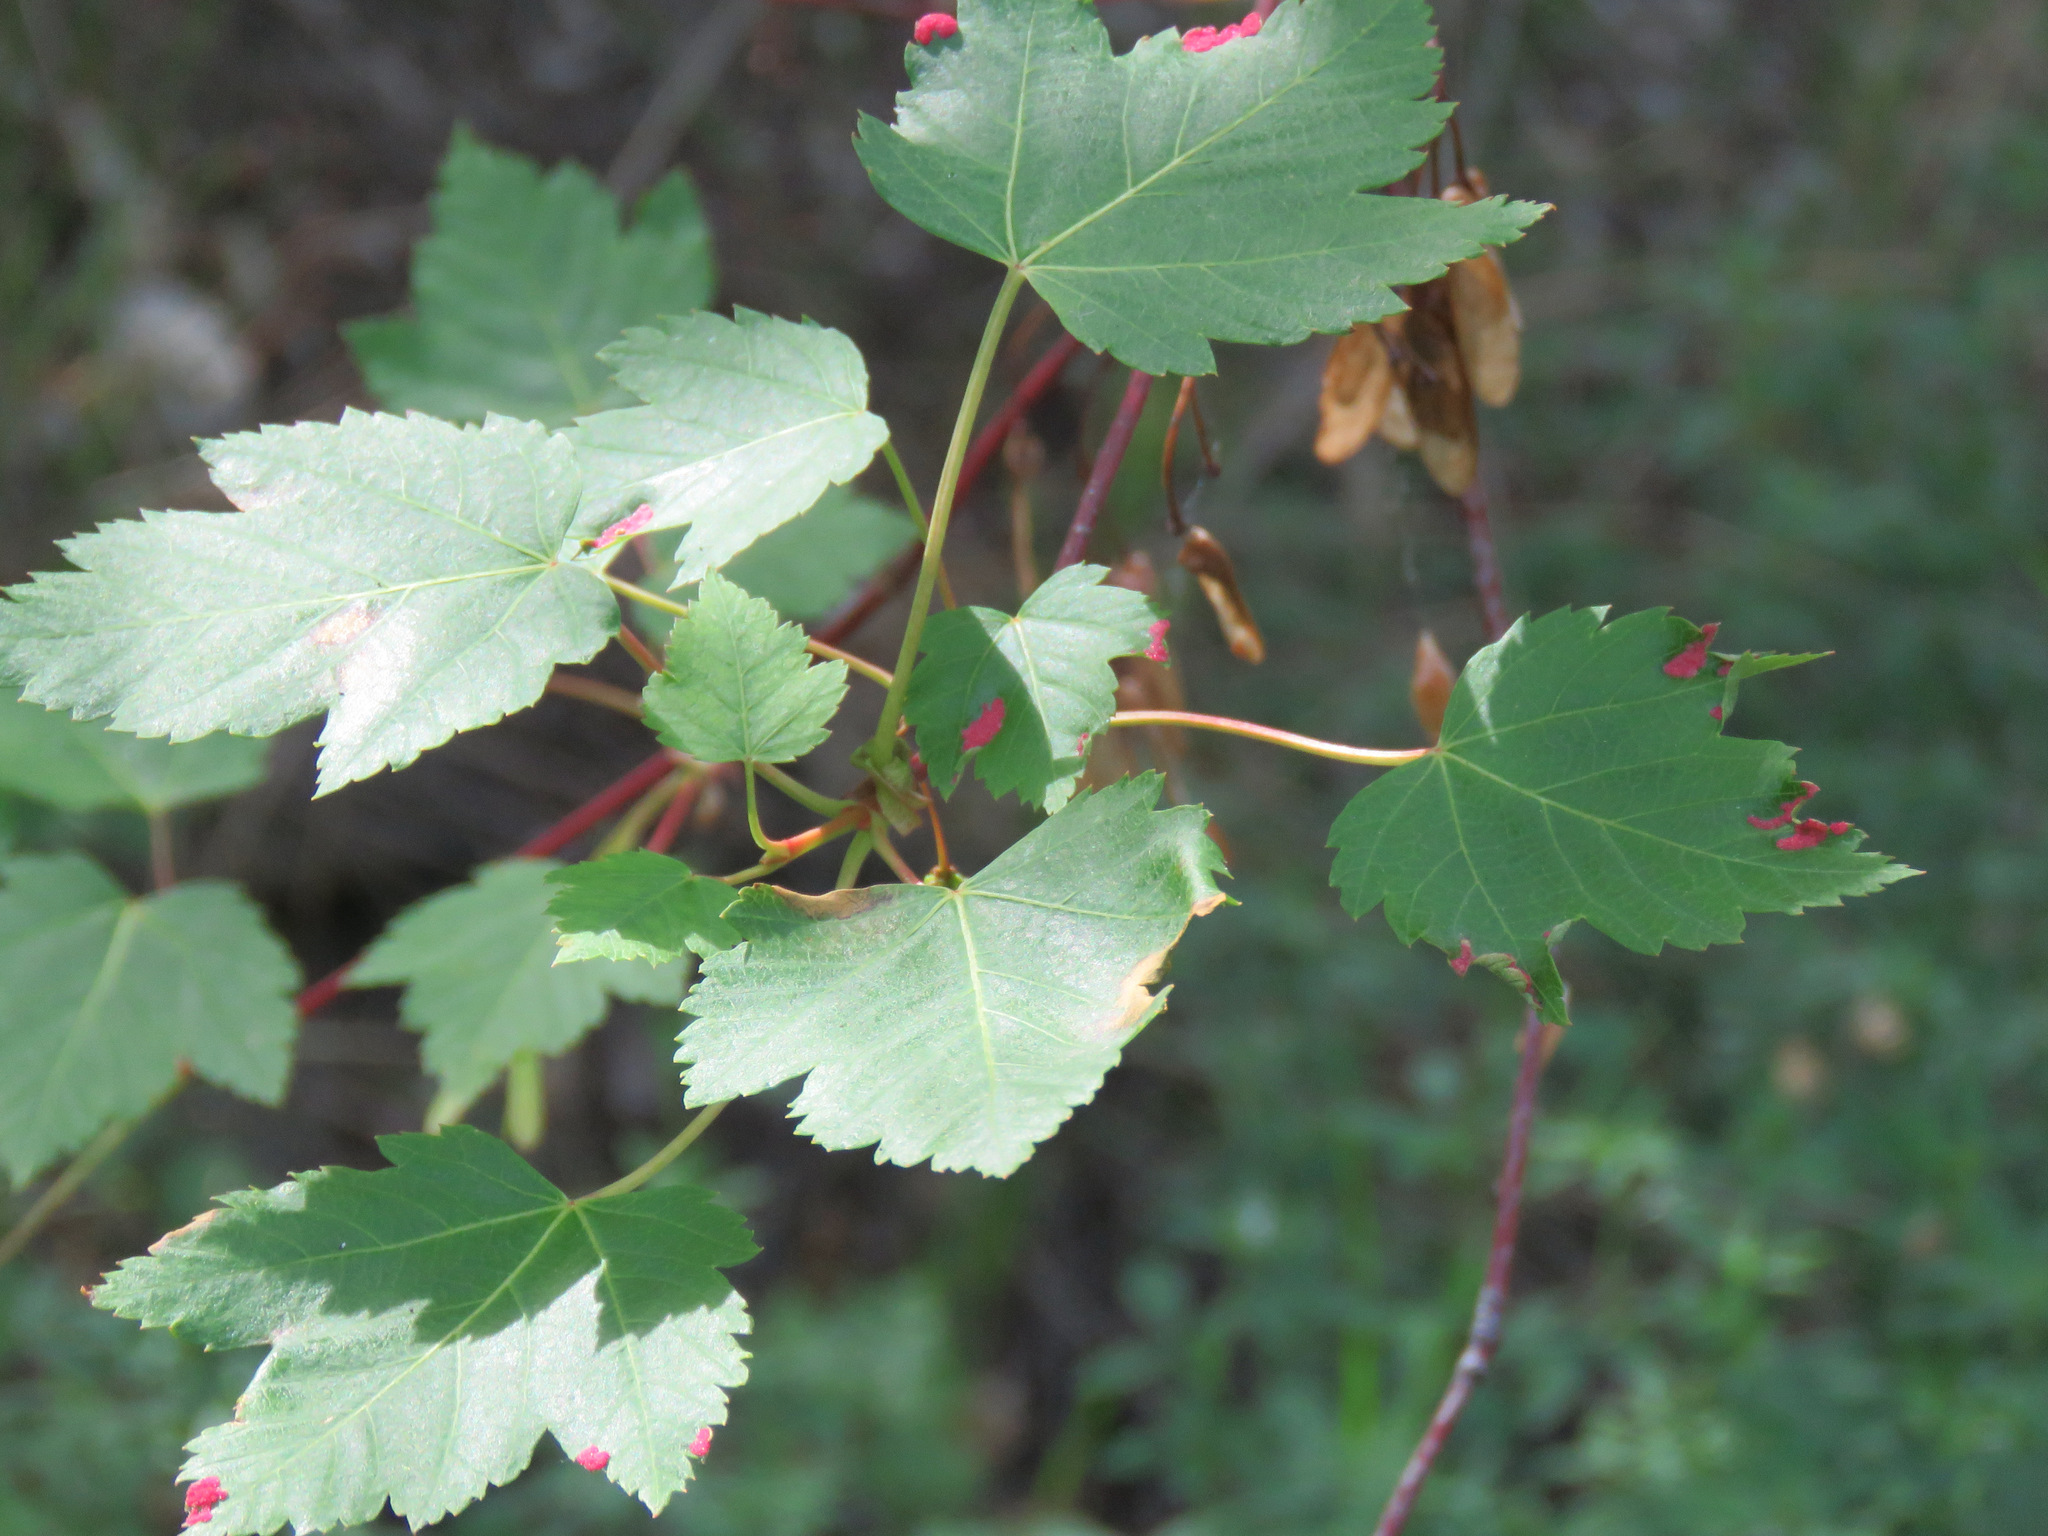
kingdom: Plantae
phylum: Tracheophyta
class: Magnoliopsida
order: Sapindales
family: Sapindaceae
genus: Acer
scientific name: Acer glabrum
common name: Rocky mountain maple
